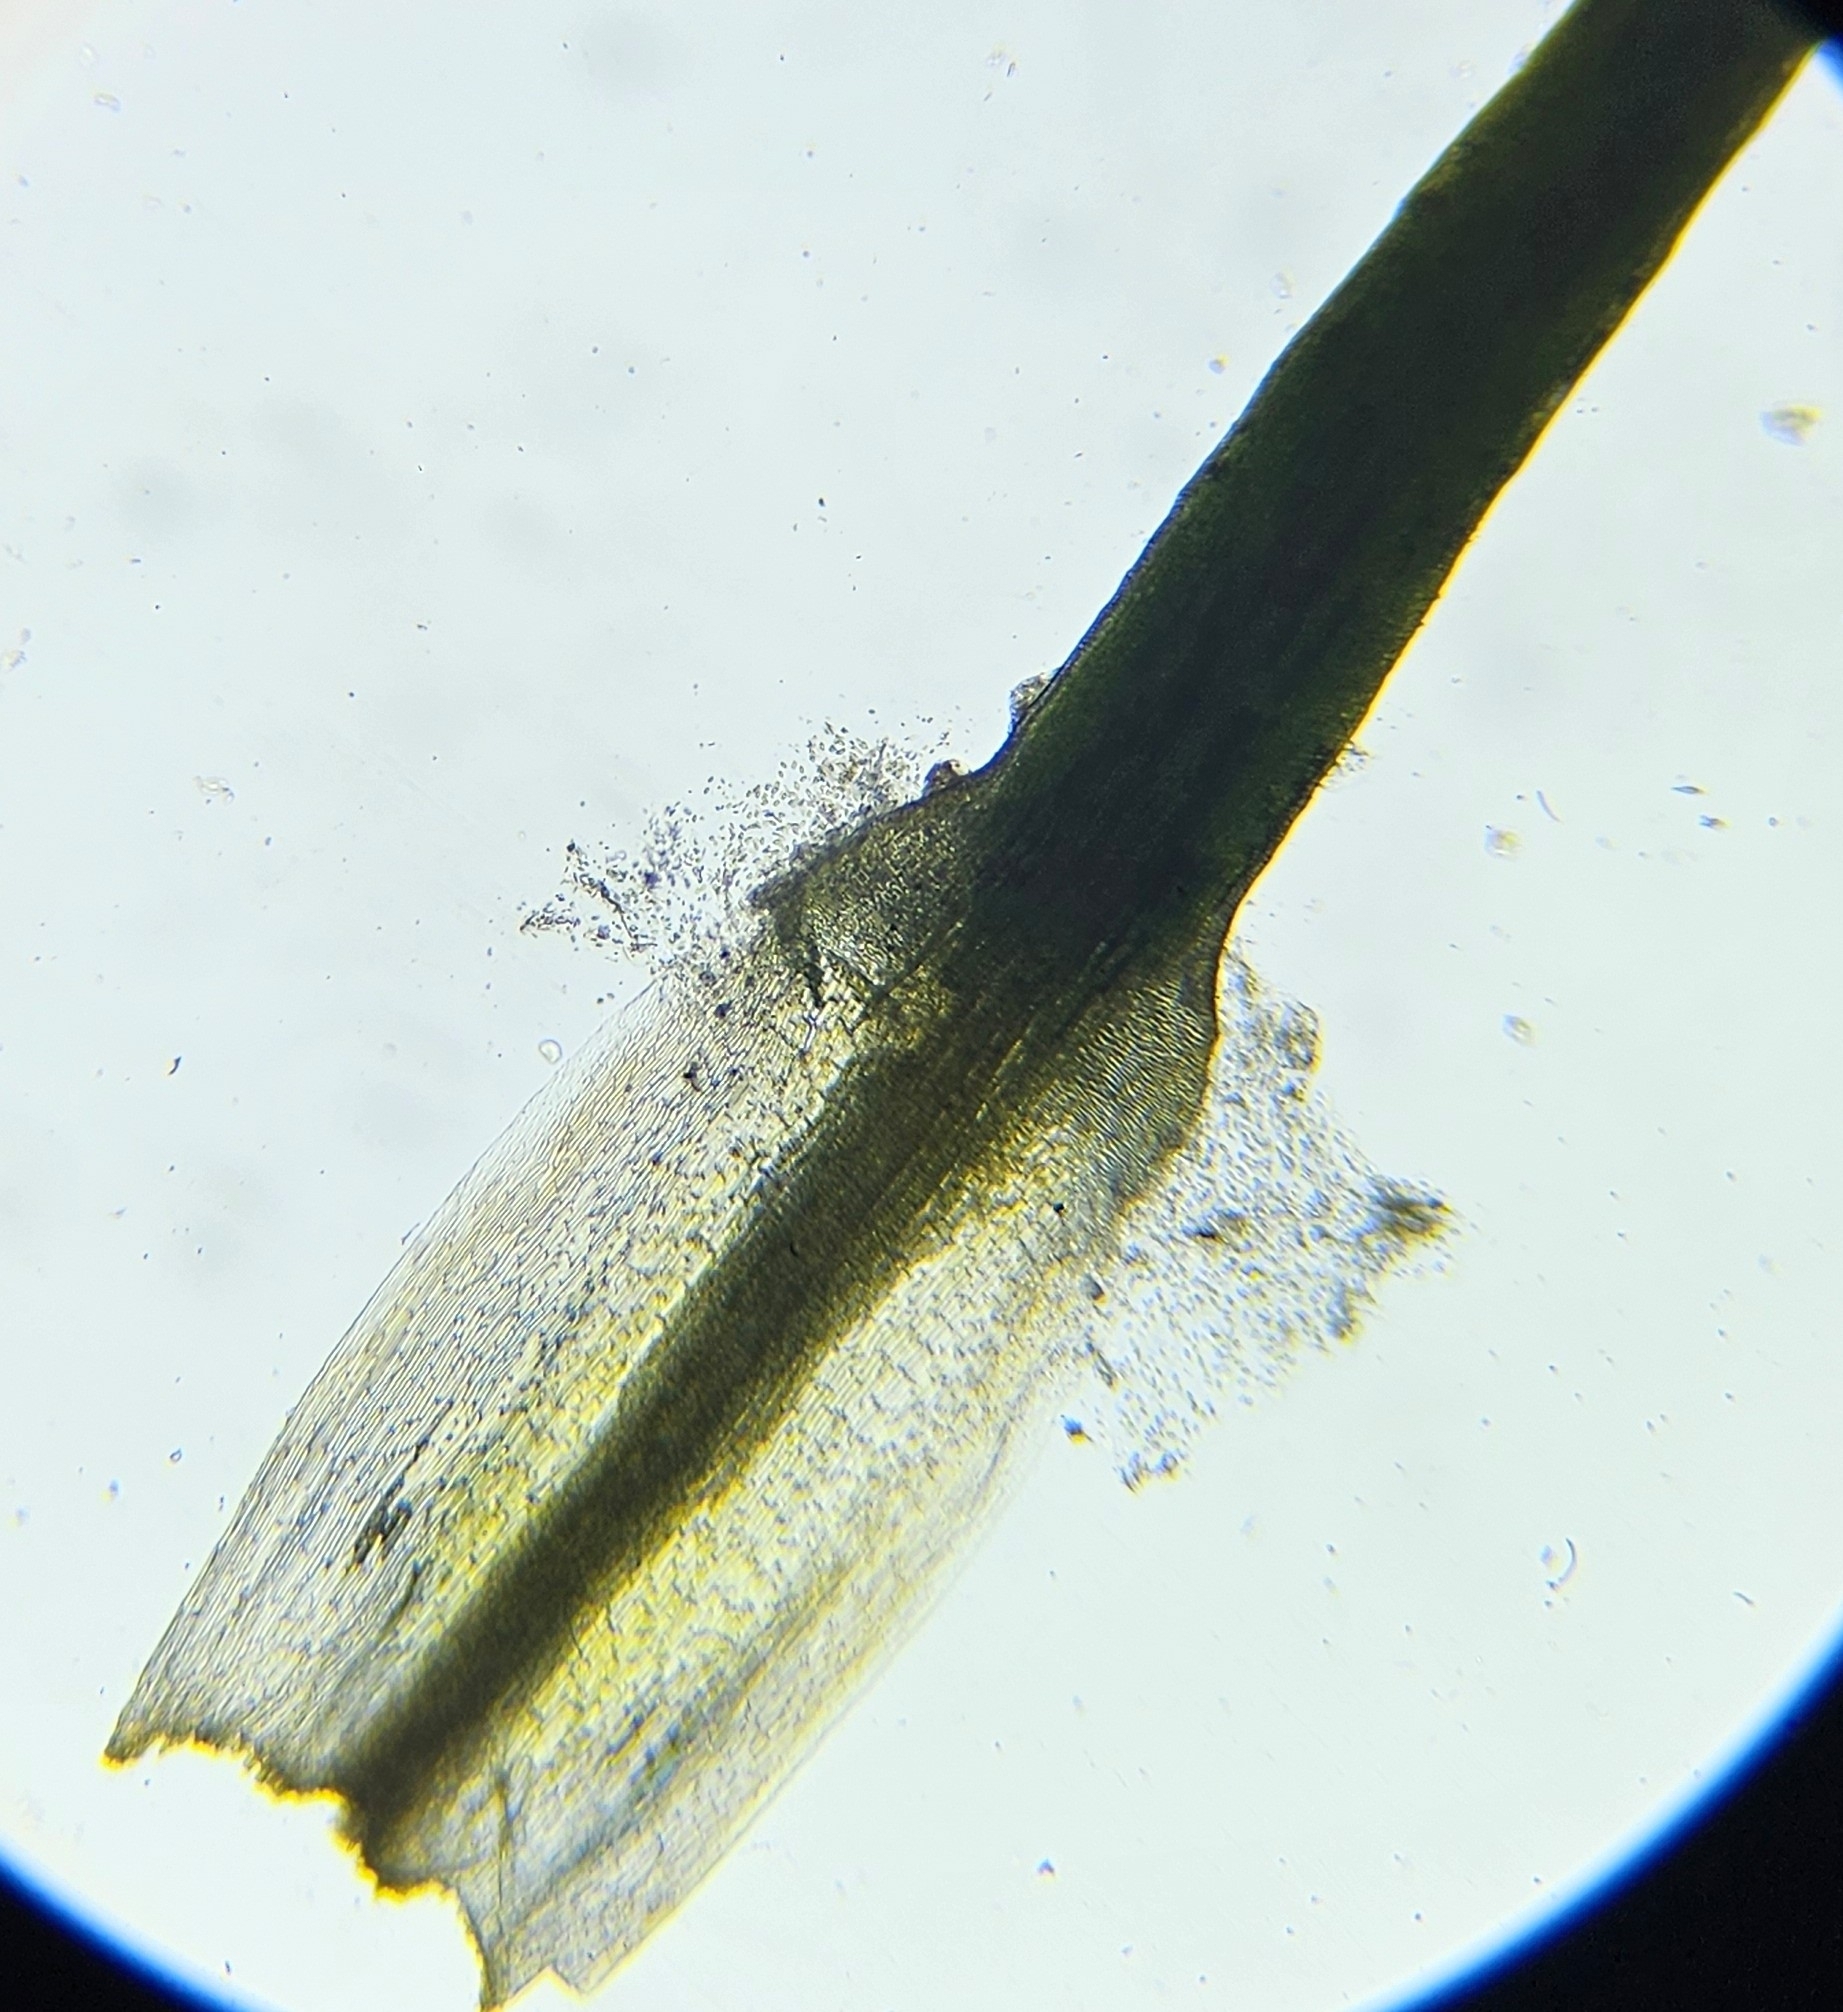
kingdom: Plantae
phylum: Bryophyta
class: Polytrichopsida
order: Polytrichales
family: Polytrichaceae
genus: Polytrichum
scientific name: Polytrichum strictum
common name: Bog haircap moss
